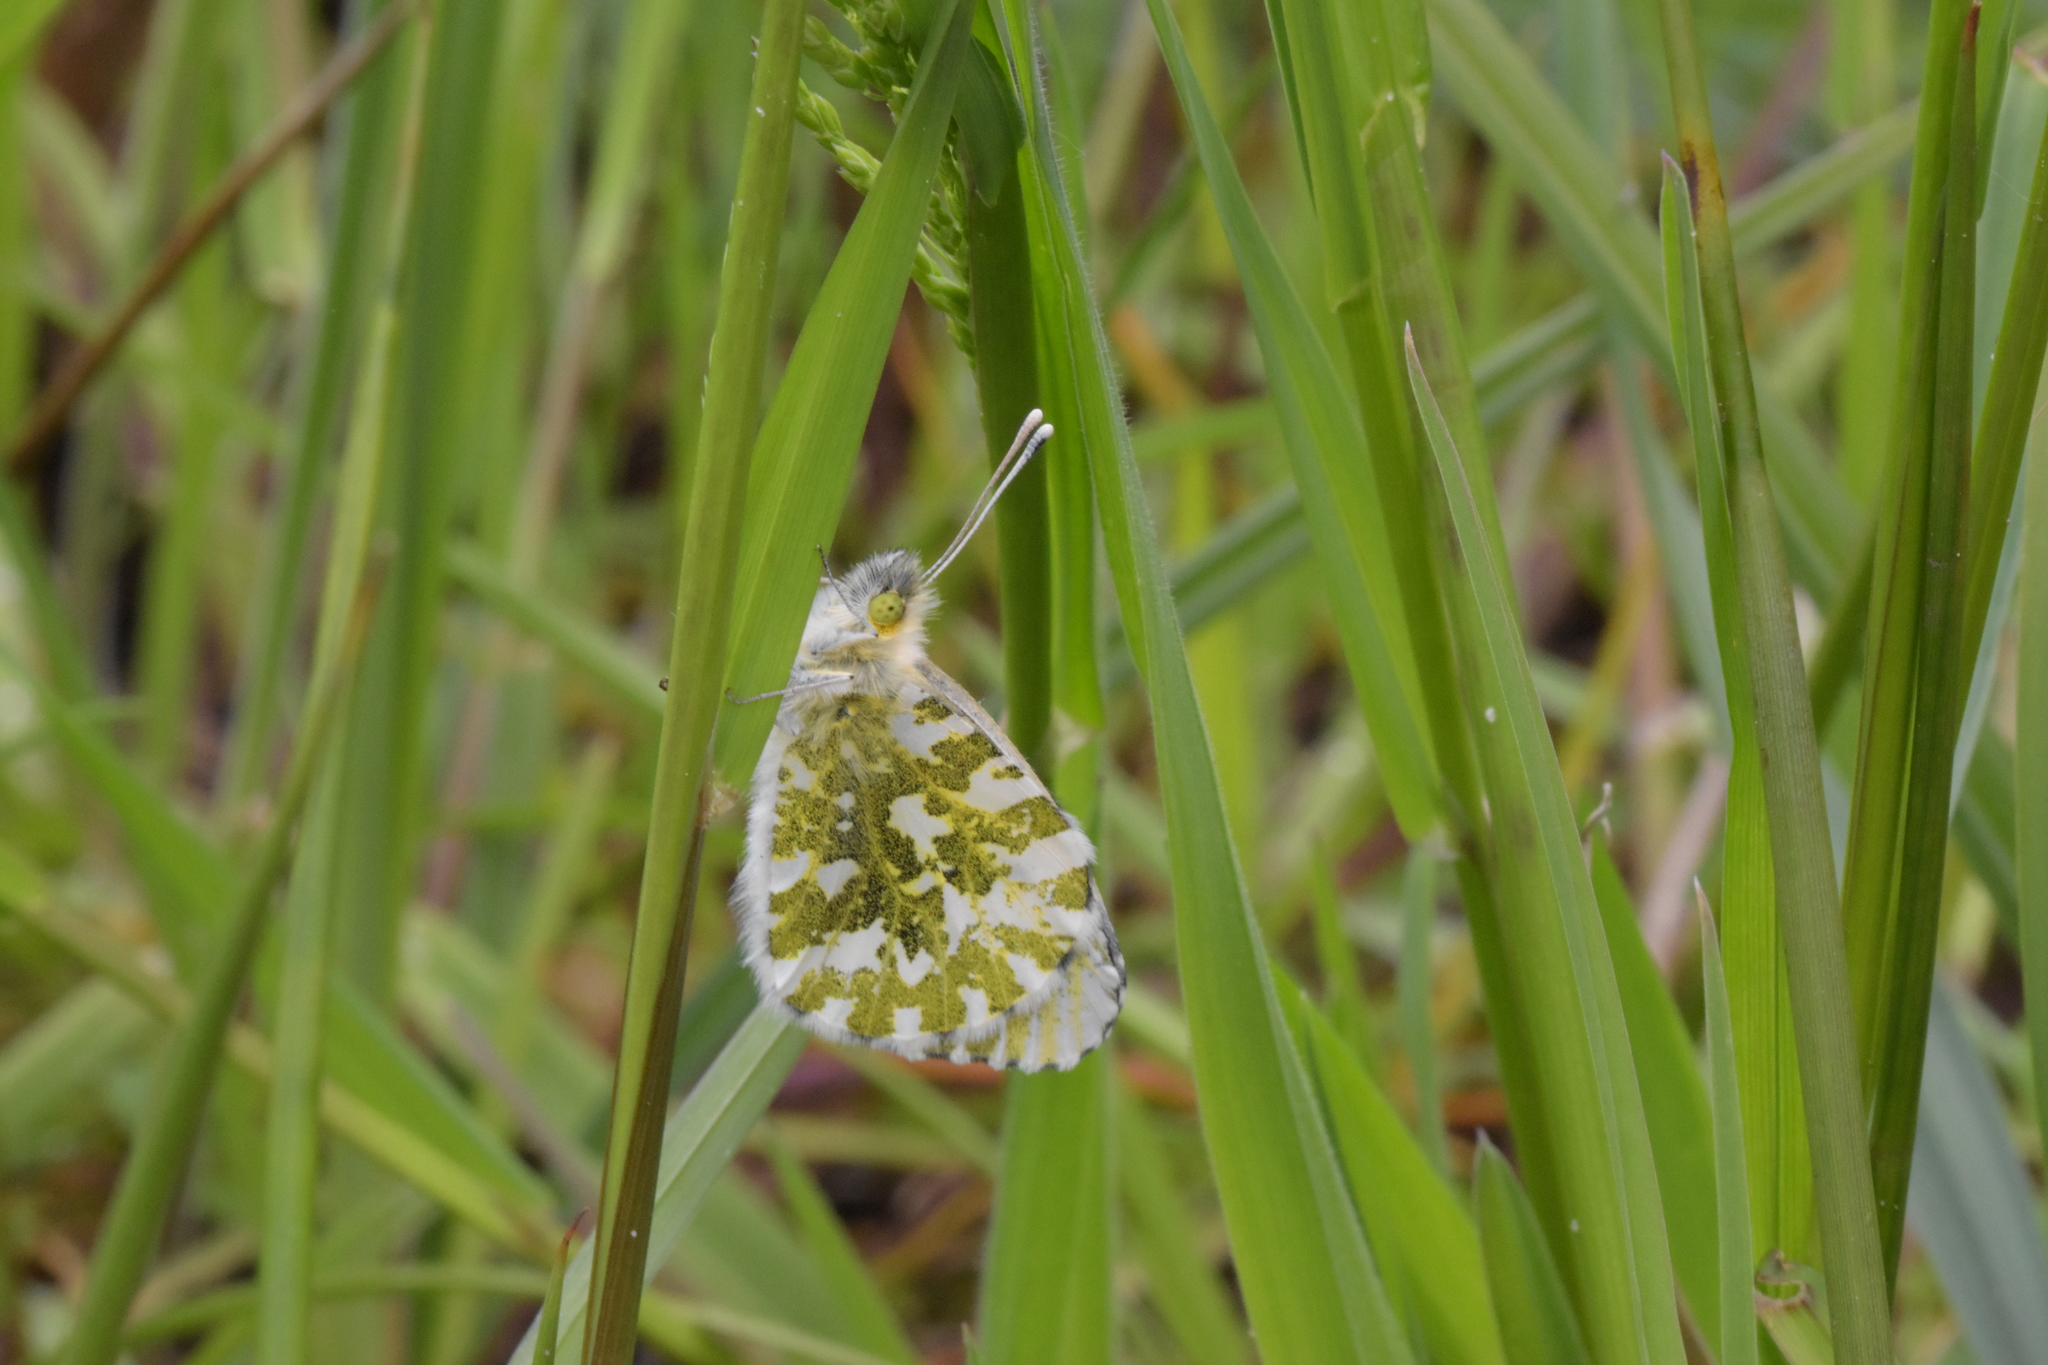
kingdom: Animalia
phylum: Arthropoda
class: Insecta
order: Lepidoptera
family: Pieridae
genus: Anthocharis
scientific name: Anthocharis cardamines
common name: Orange-tip
